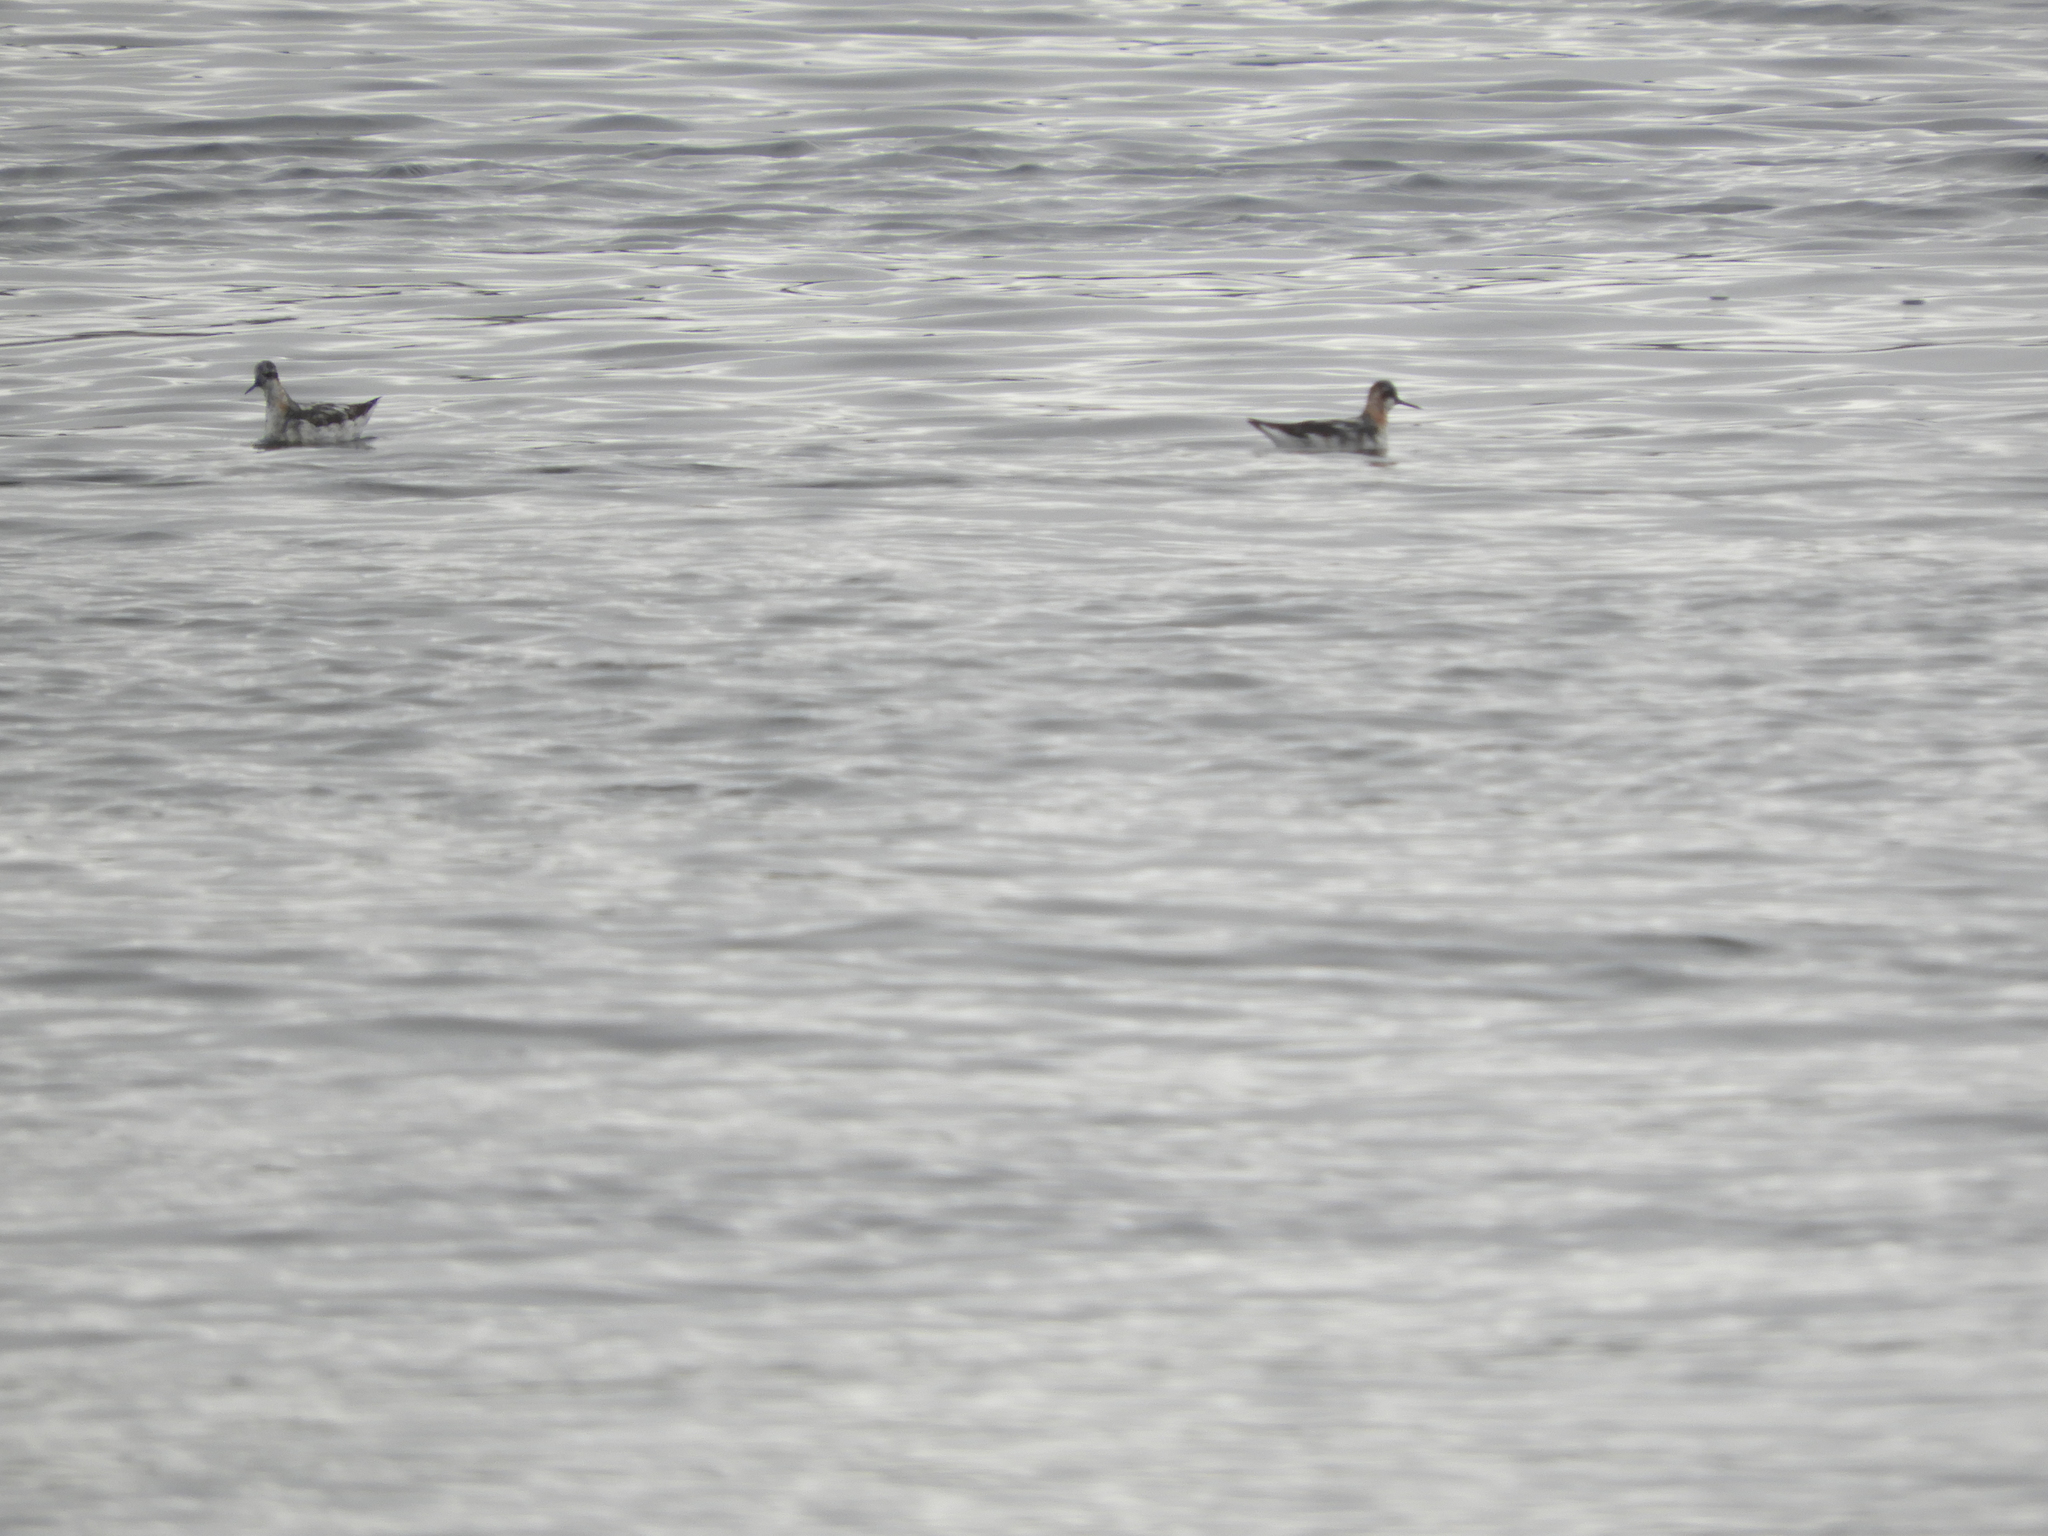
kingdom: Animalia
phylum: Chordata
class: Aves
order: Charadriiformes
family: Scolopacidae
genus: Phalaropus
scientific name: Phalaropus lobatus
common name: Red-necked phalarope
